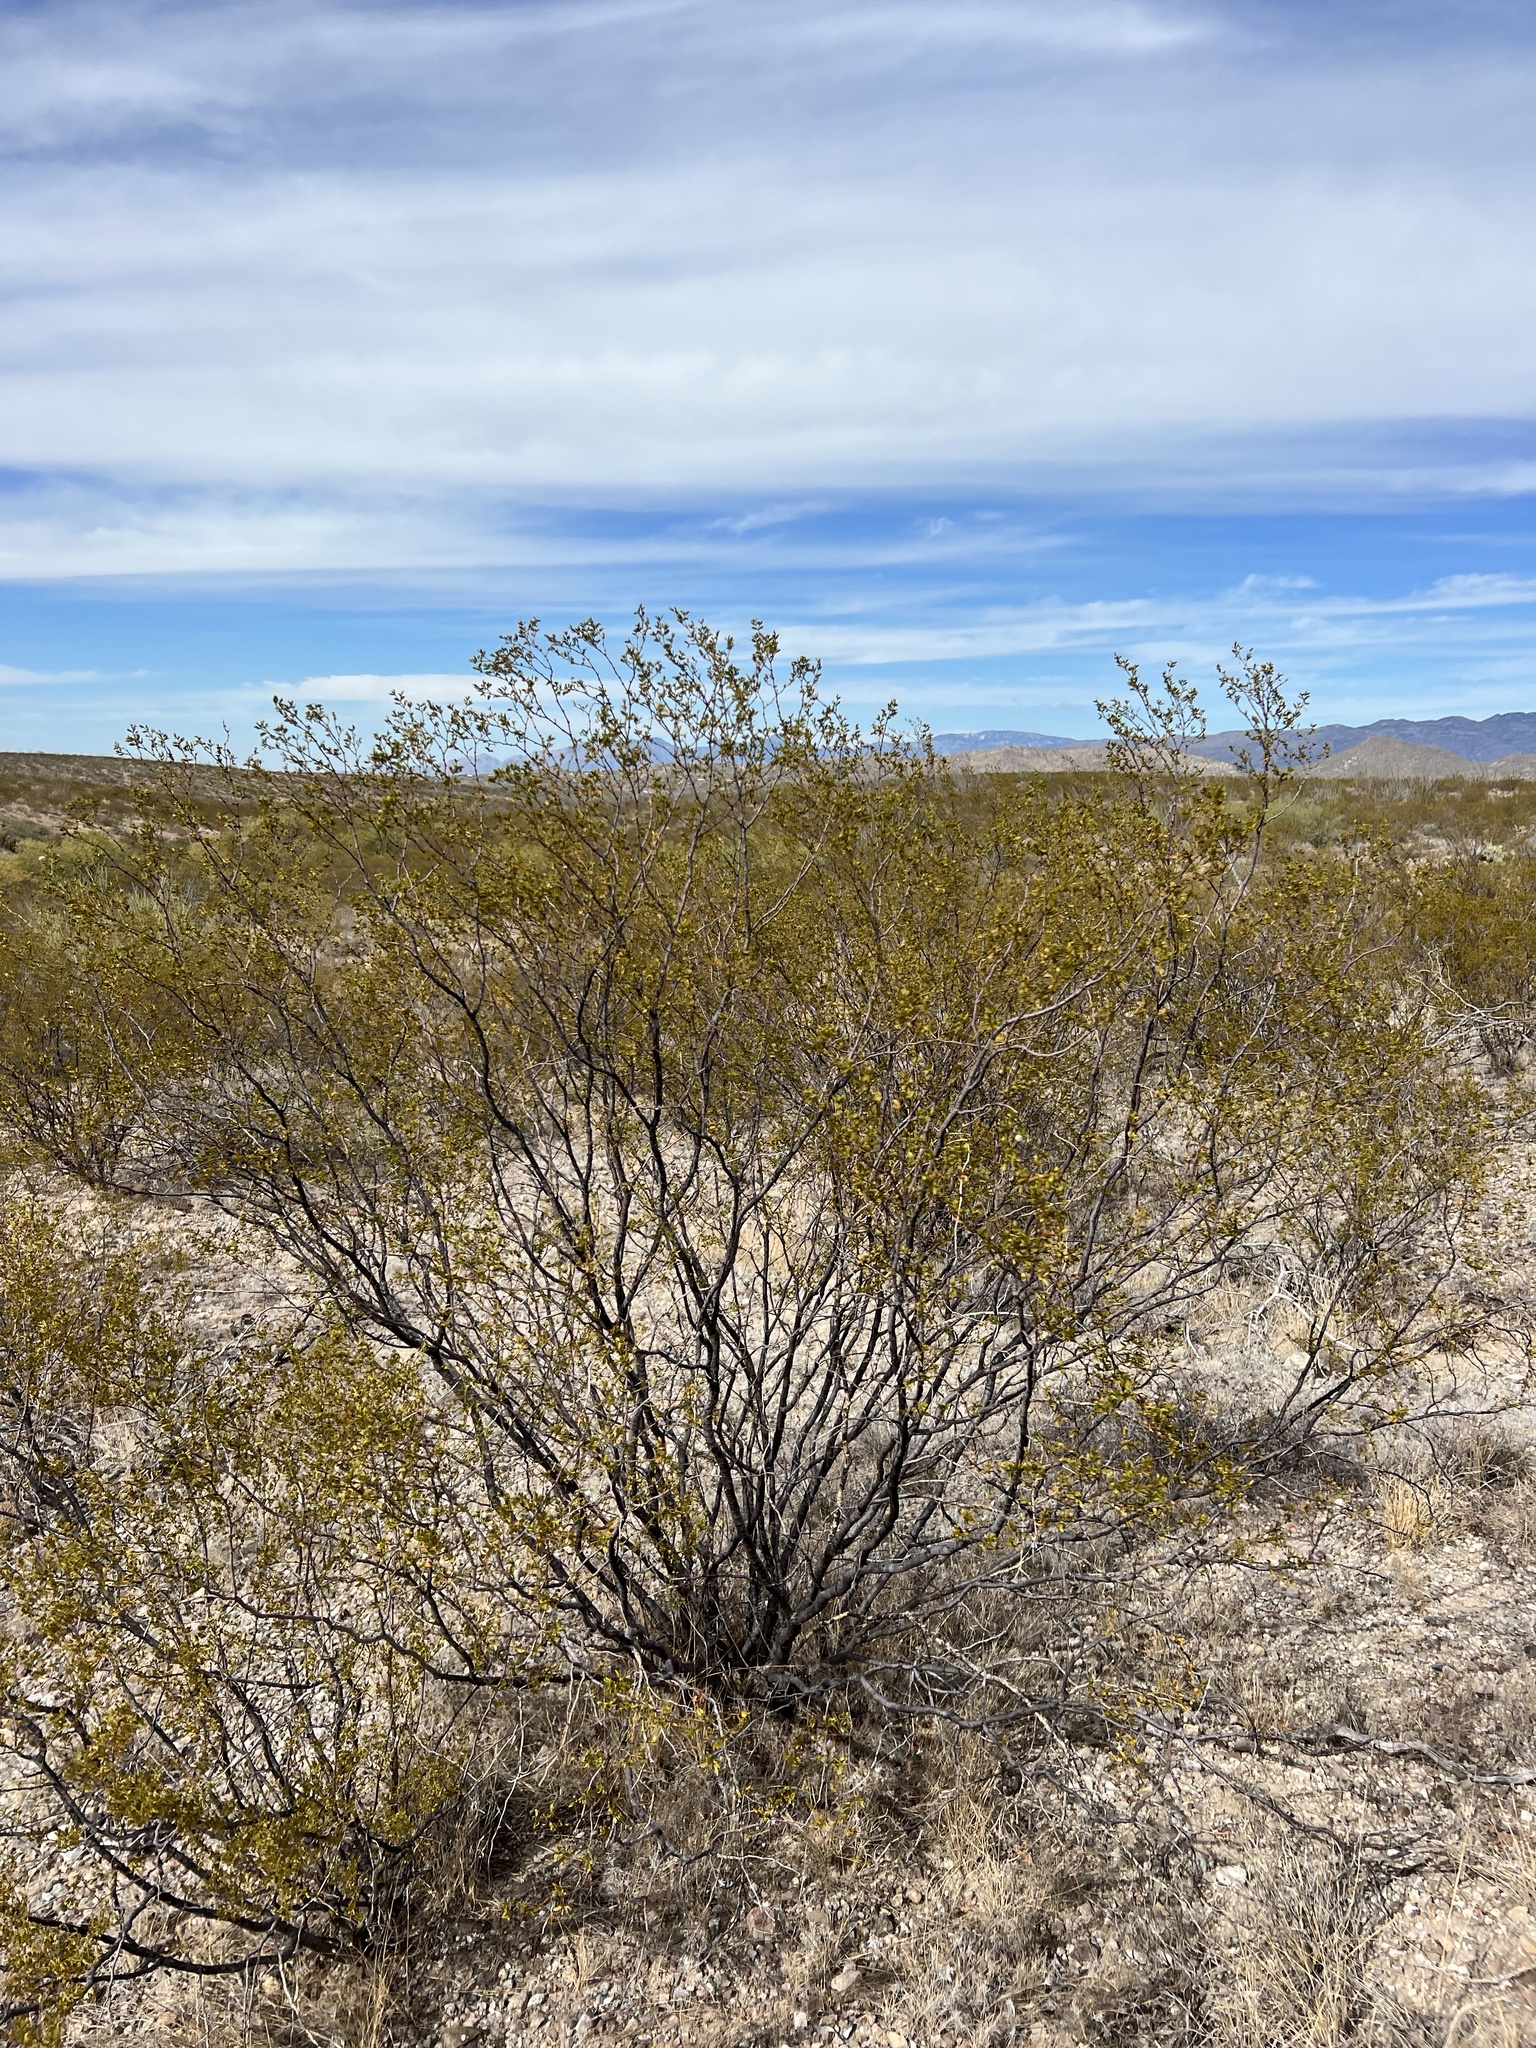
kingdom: Plantae
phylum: Tracheophyta
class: Magnoliopsida
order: Zygophyllales
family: Zygophyllaceae
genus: Larrea
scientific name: Larrea tridentata
